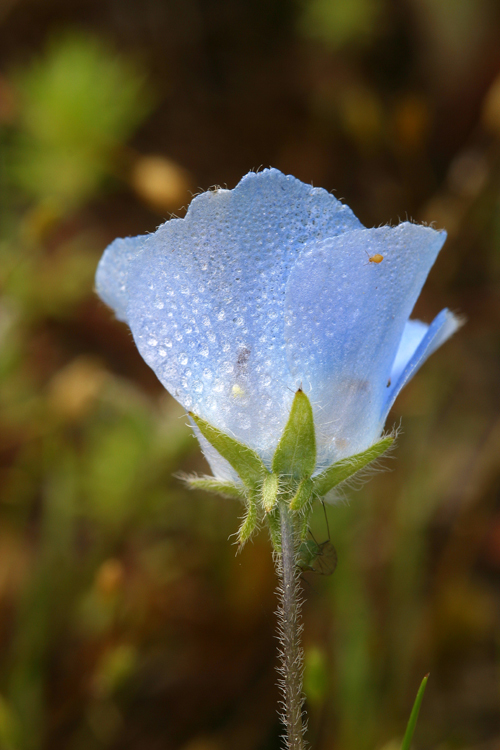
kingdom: Plantae
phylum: Tracheophyta
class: Magnoliopsida
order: Boraginales
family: Hydrophyllaceae
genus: Nemophila
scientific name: Nemophila menziesii
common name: Baby's-blue-eyes
